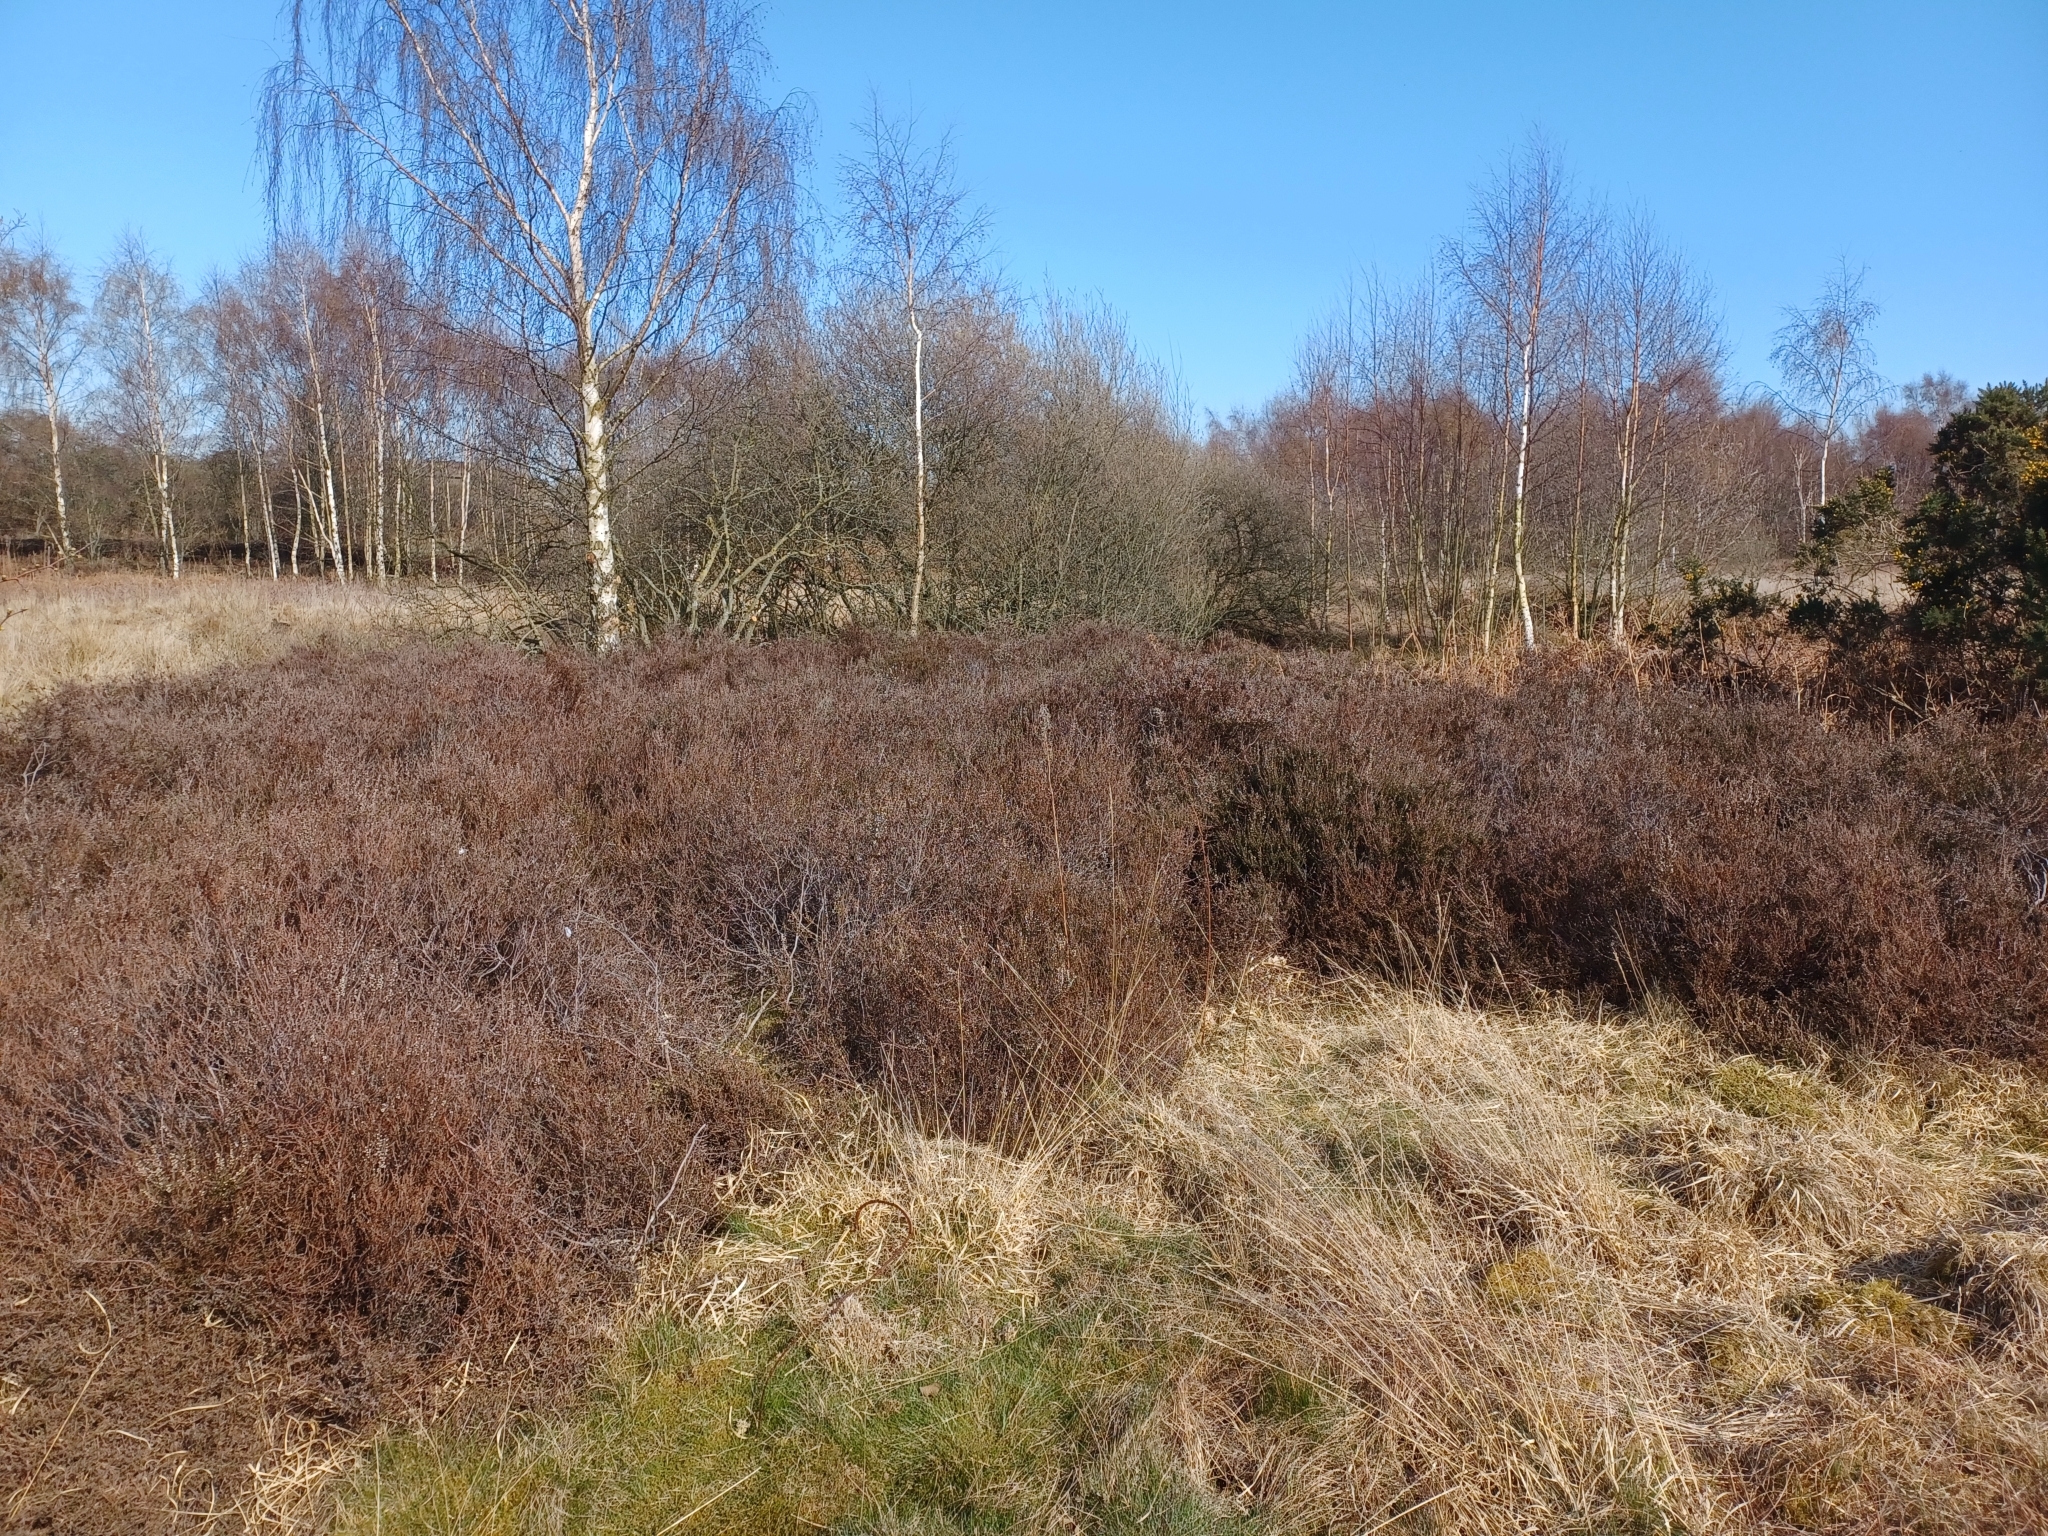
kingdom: Plantae
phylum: Tracheophyta
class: Magnoliopsida
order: Ericales
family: Ericaceae
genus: Calluna
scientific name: Calluna vulgaris
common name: Heather
